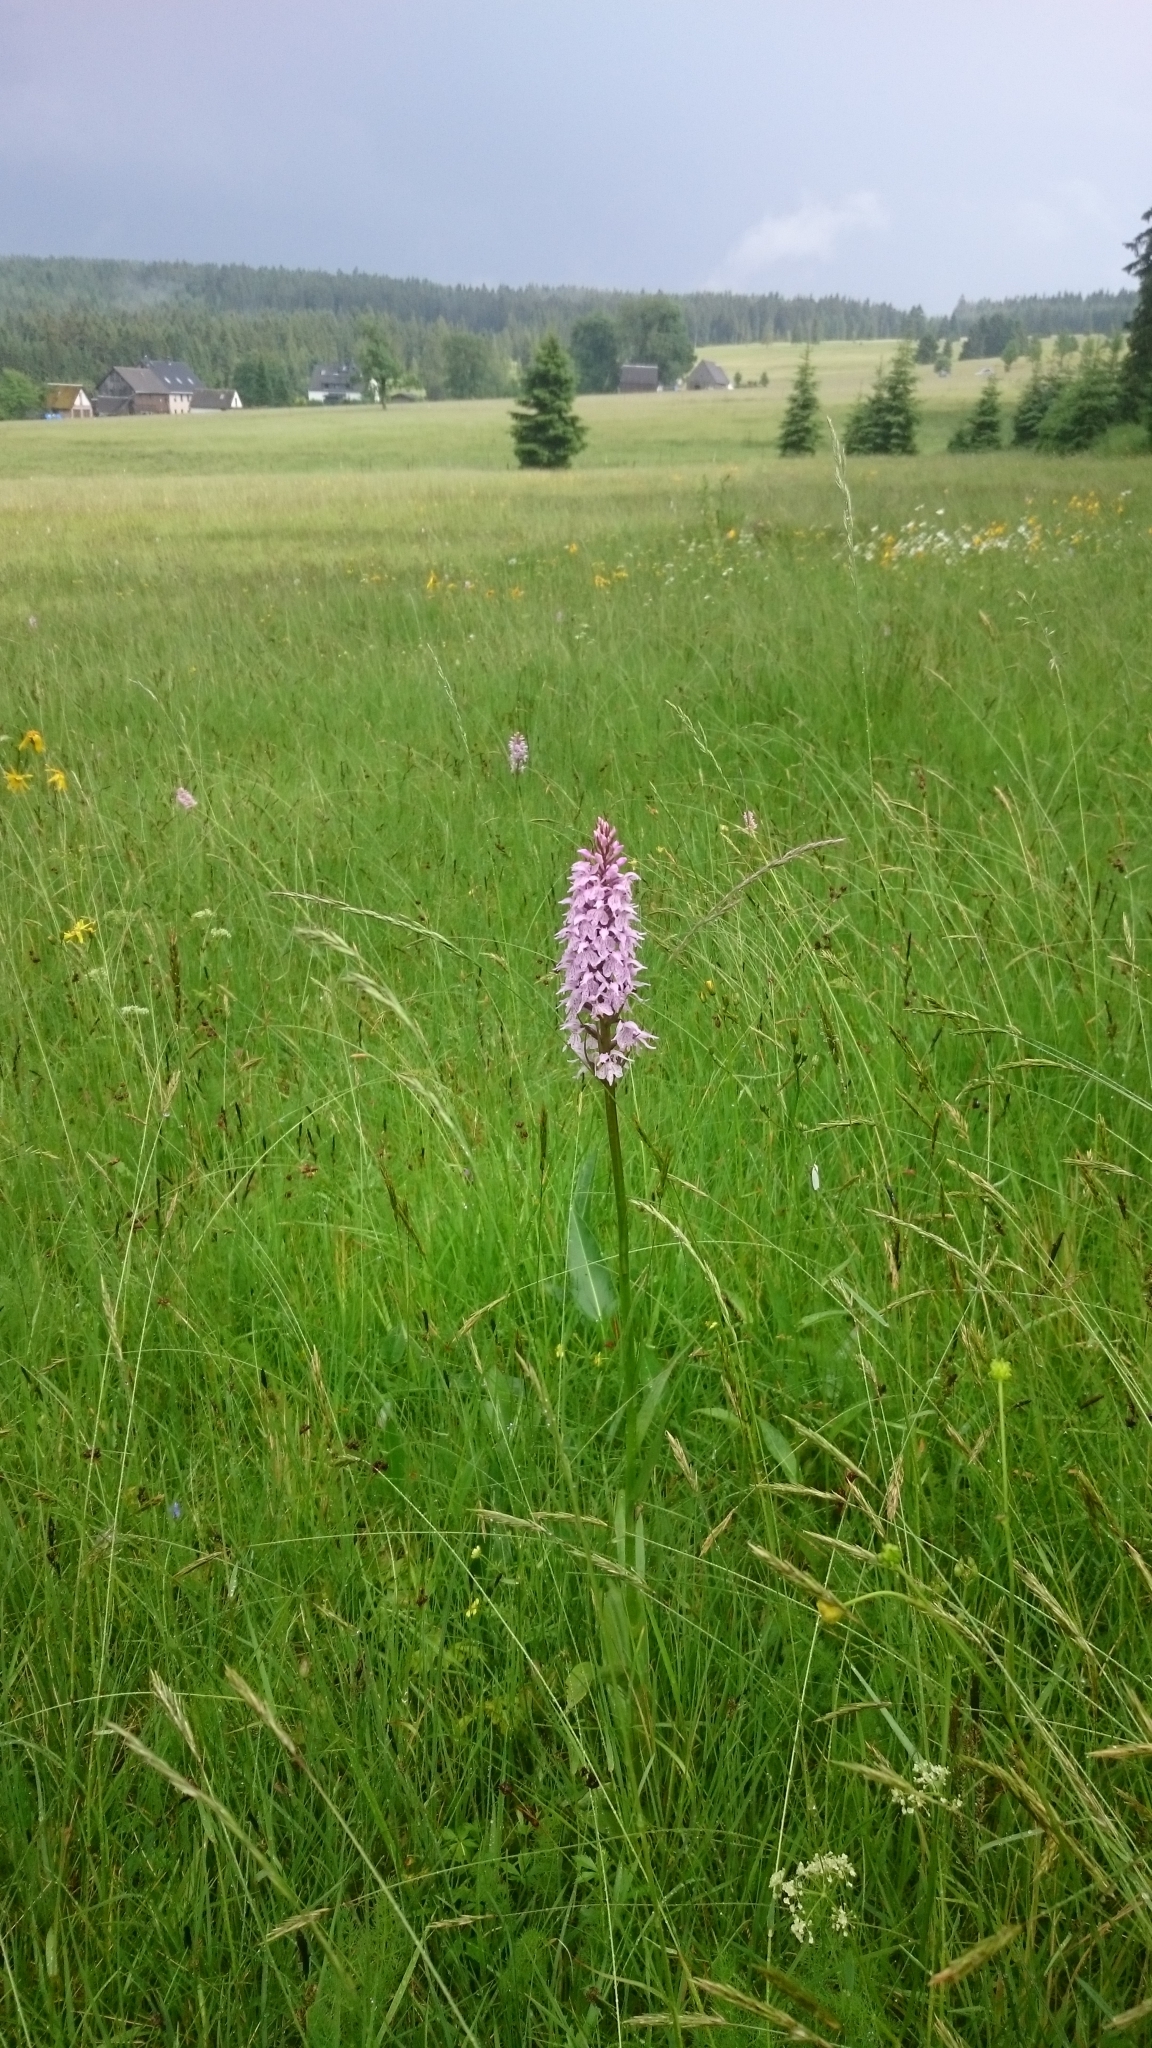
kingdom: Plantae
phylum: Tracheophyta
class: Liliopsida
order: Asparagales
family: Orchidaceae
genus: Dactylorhiza
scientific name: Dactylorhiza maculata
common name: Heath spotted-orchid
